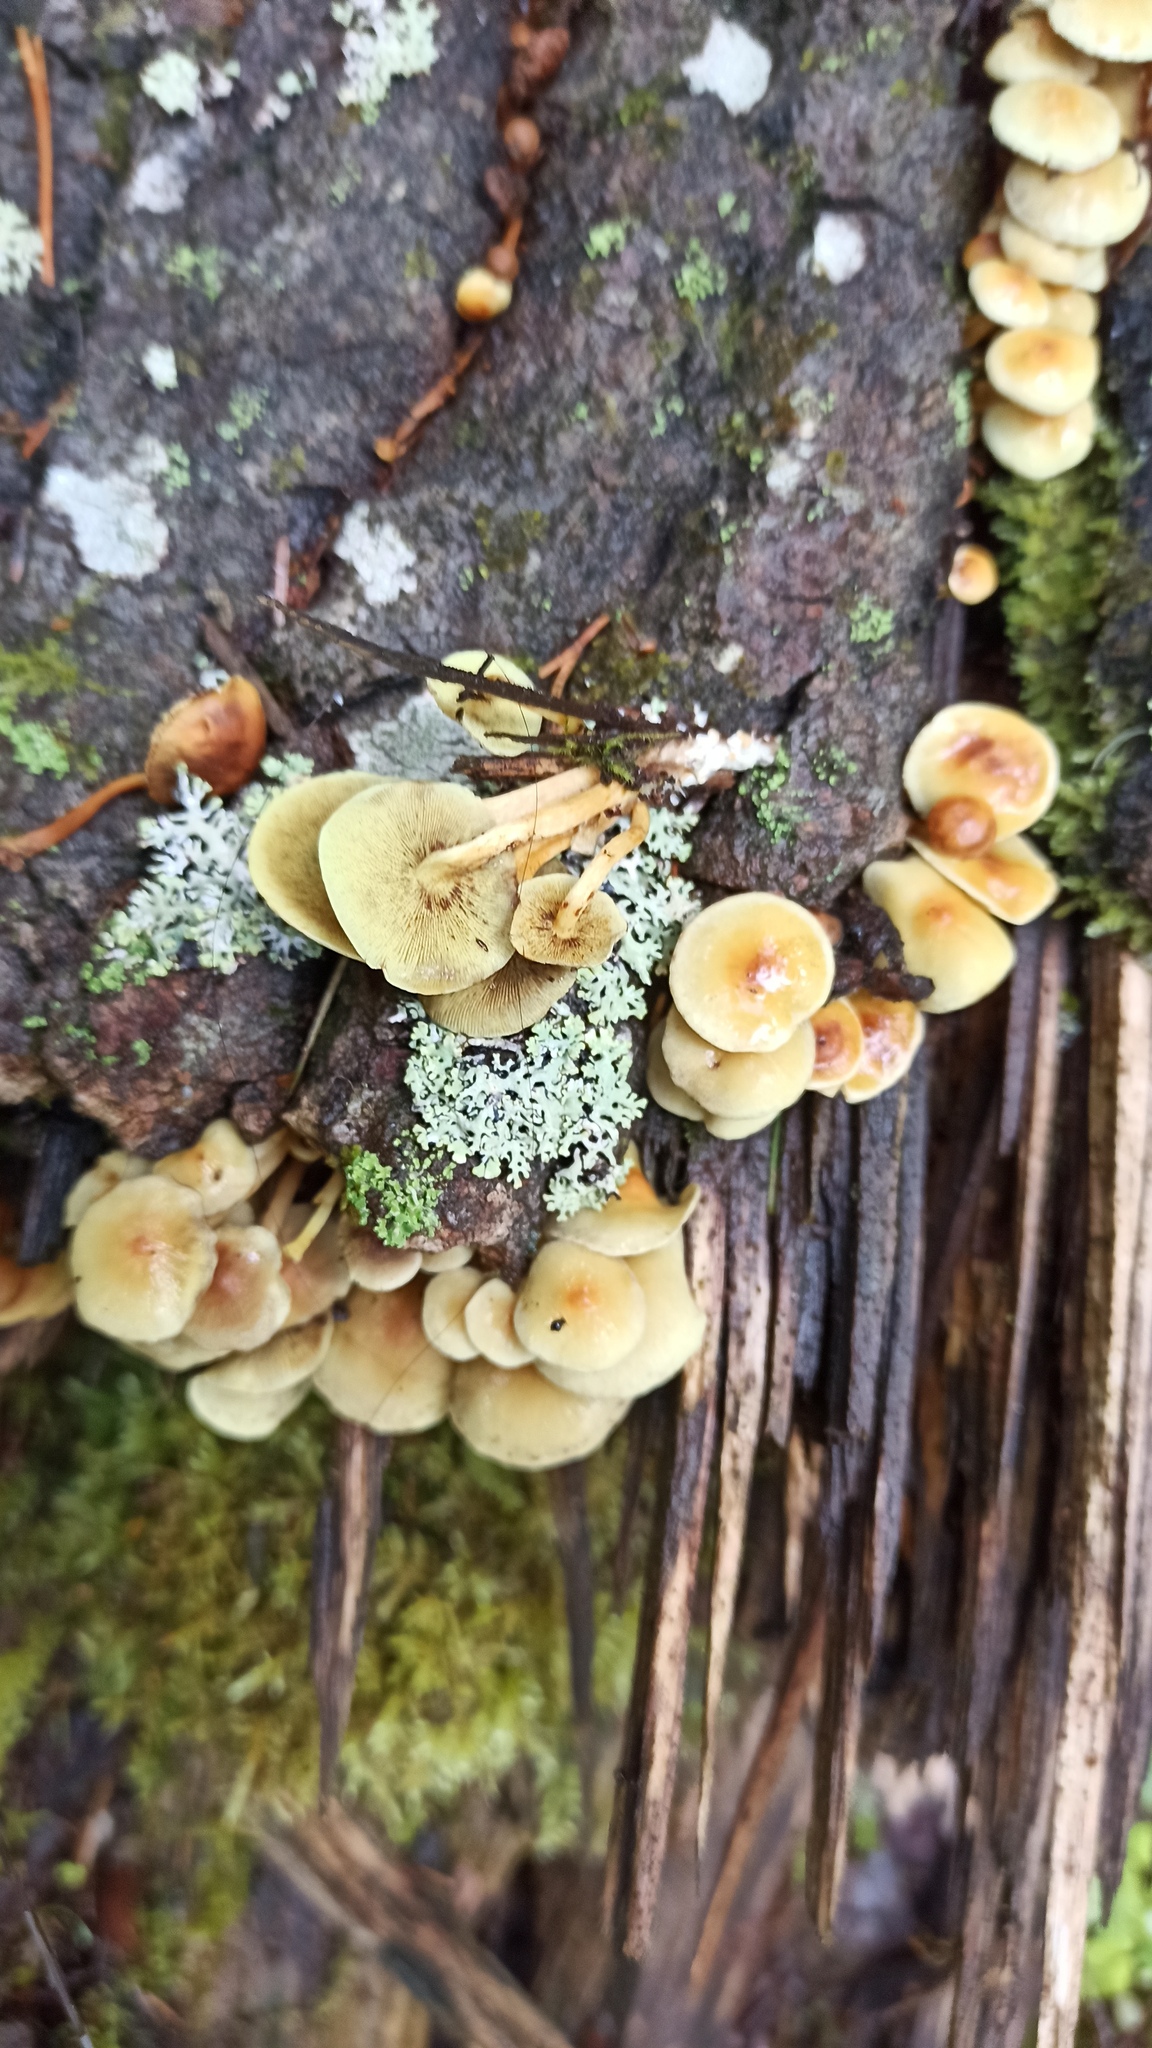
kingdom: Fungi
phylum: Basidiomycota
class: Agaricomycetes
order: Agaricales
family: Strophariaceae
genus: Hypholoma
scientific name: Hypholoma fasciculare
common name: Sulphur tuft
